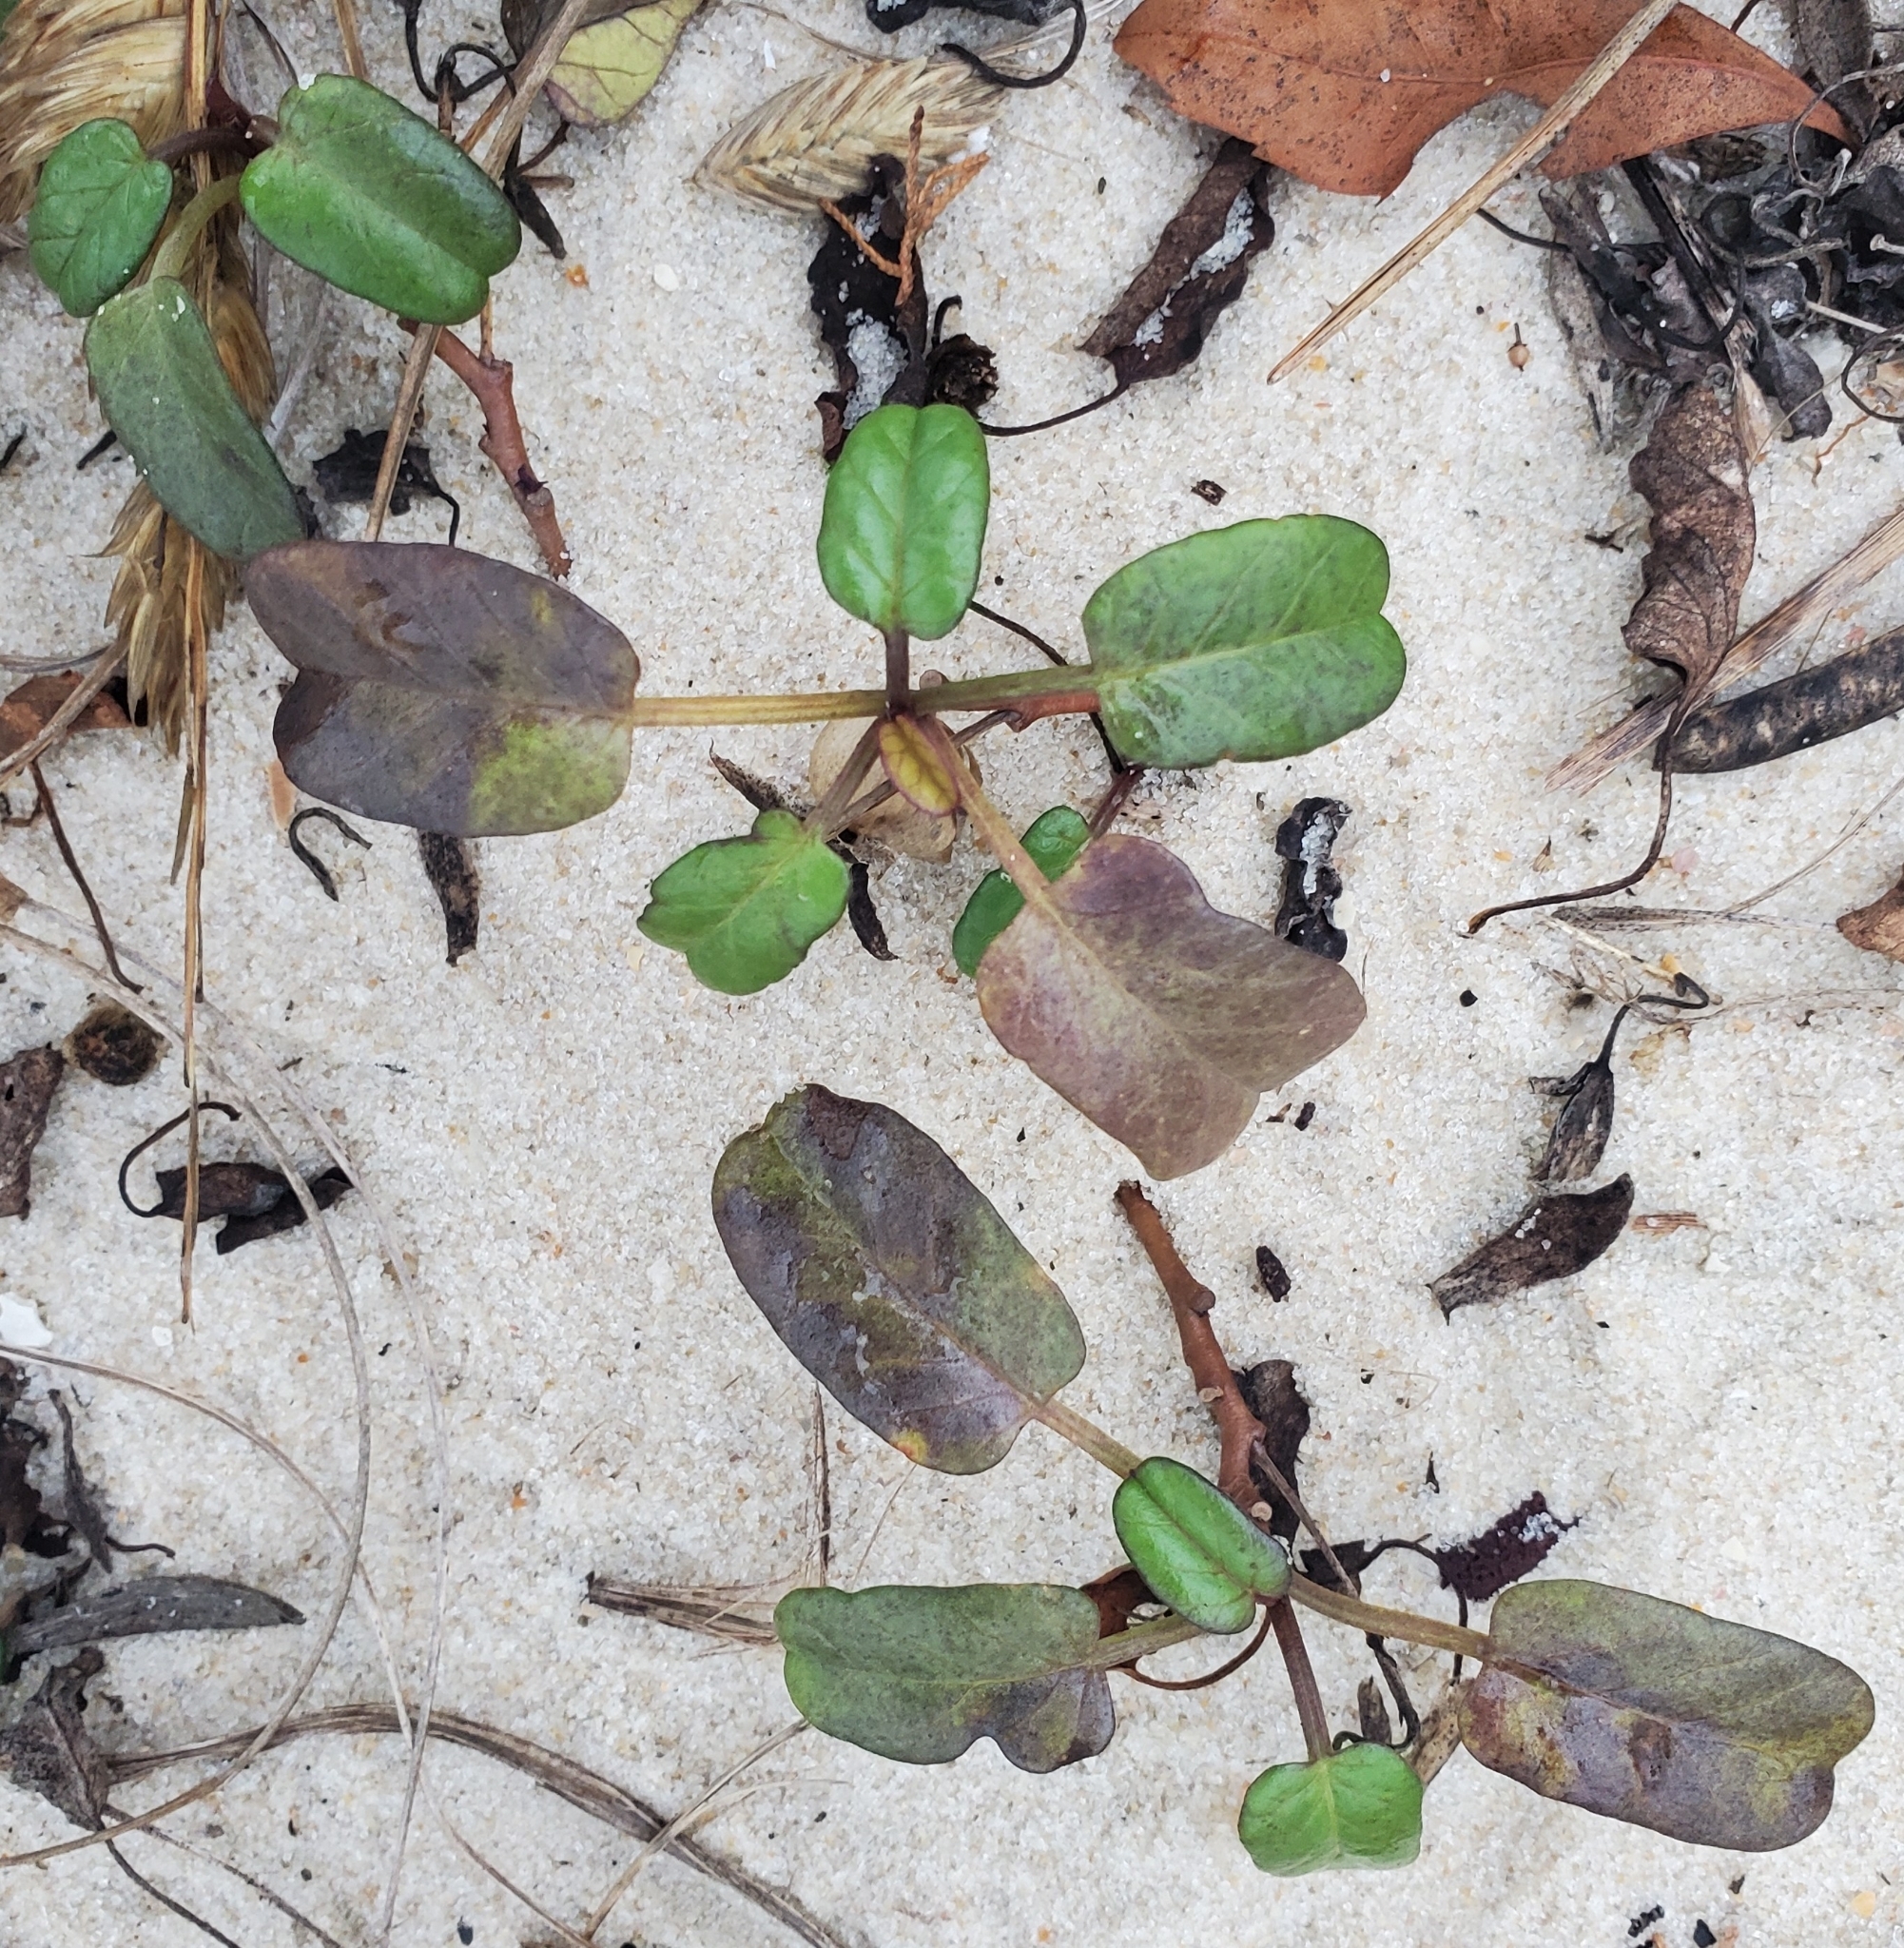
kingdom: Plantae
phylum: Tracheophyta
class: Magnoliopsida
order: Solanales
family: Convolvulaceae
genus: Ipomoea
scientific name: Ipomoea imperati
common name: Fiddle-leaf morning-glory
